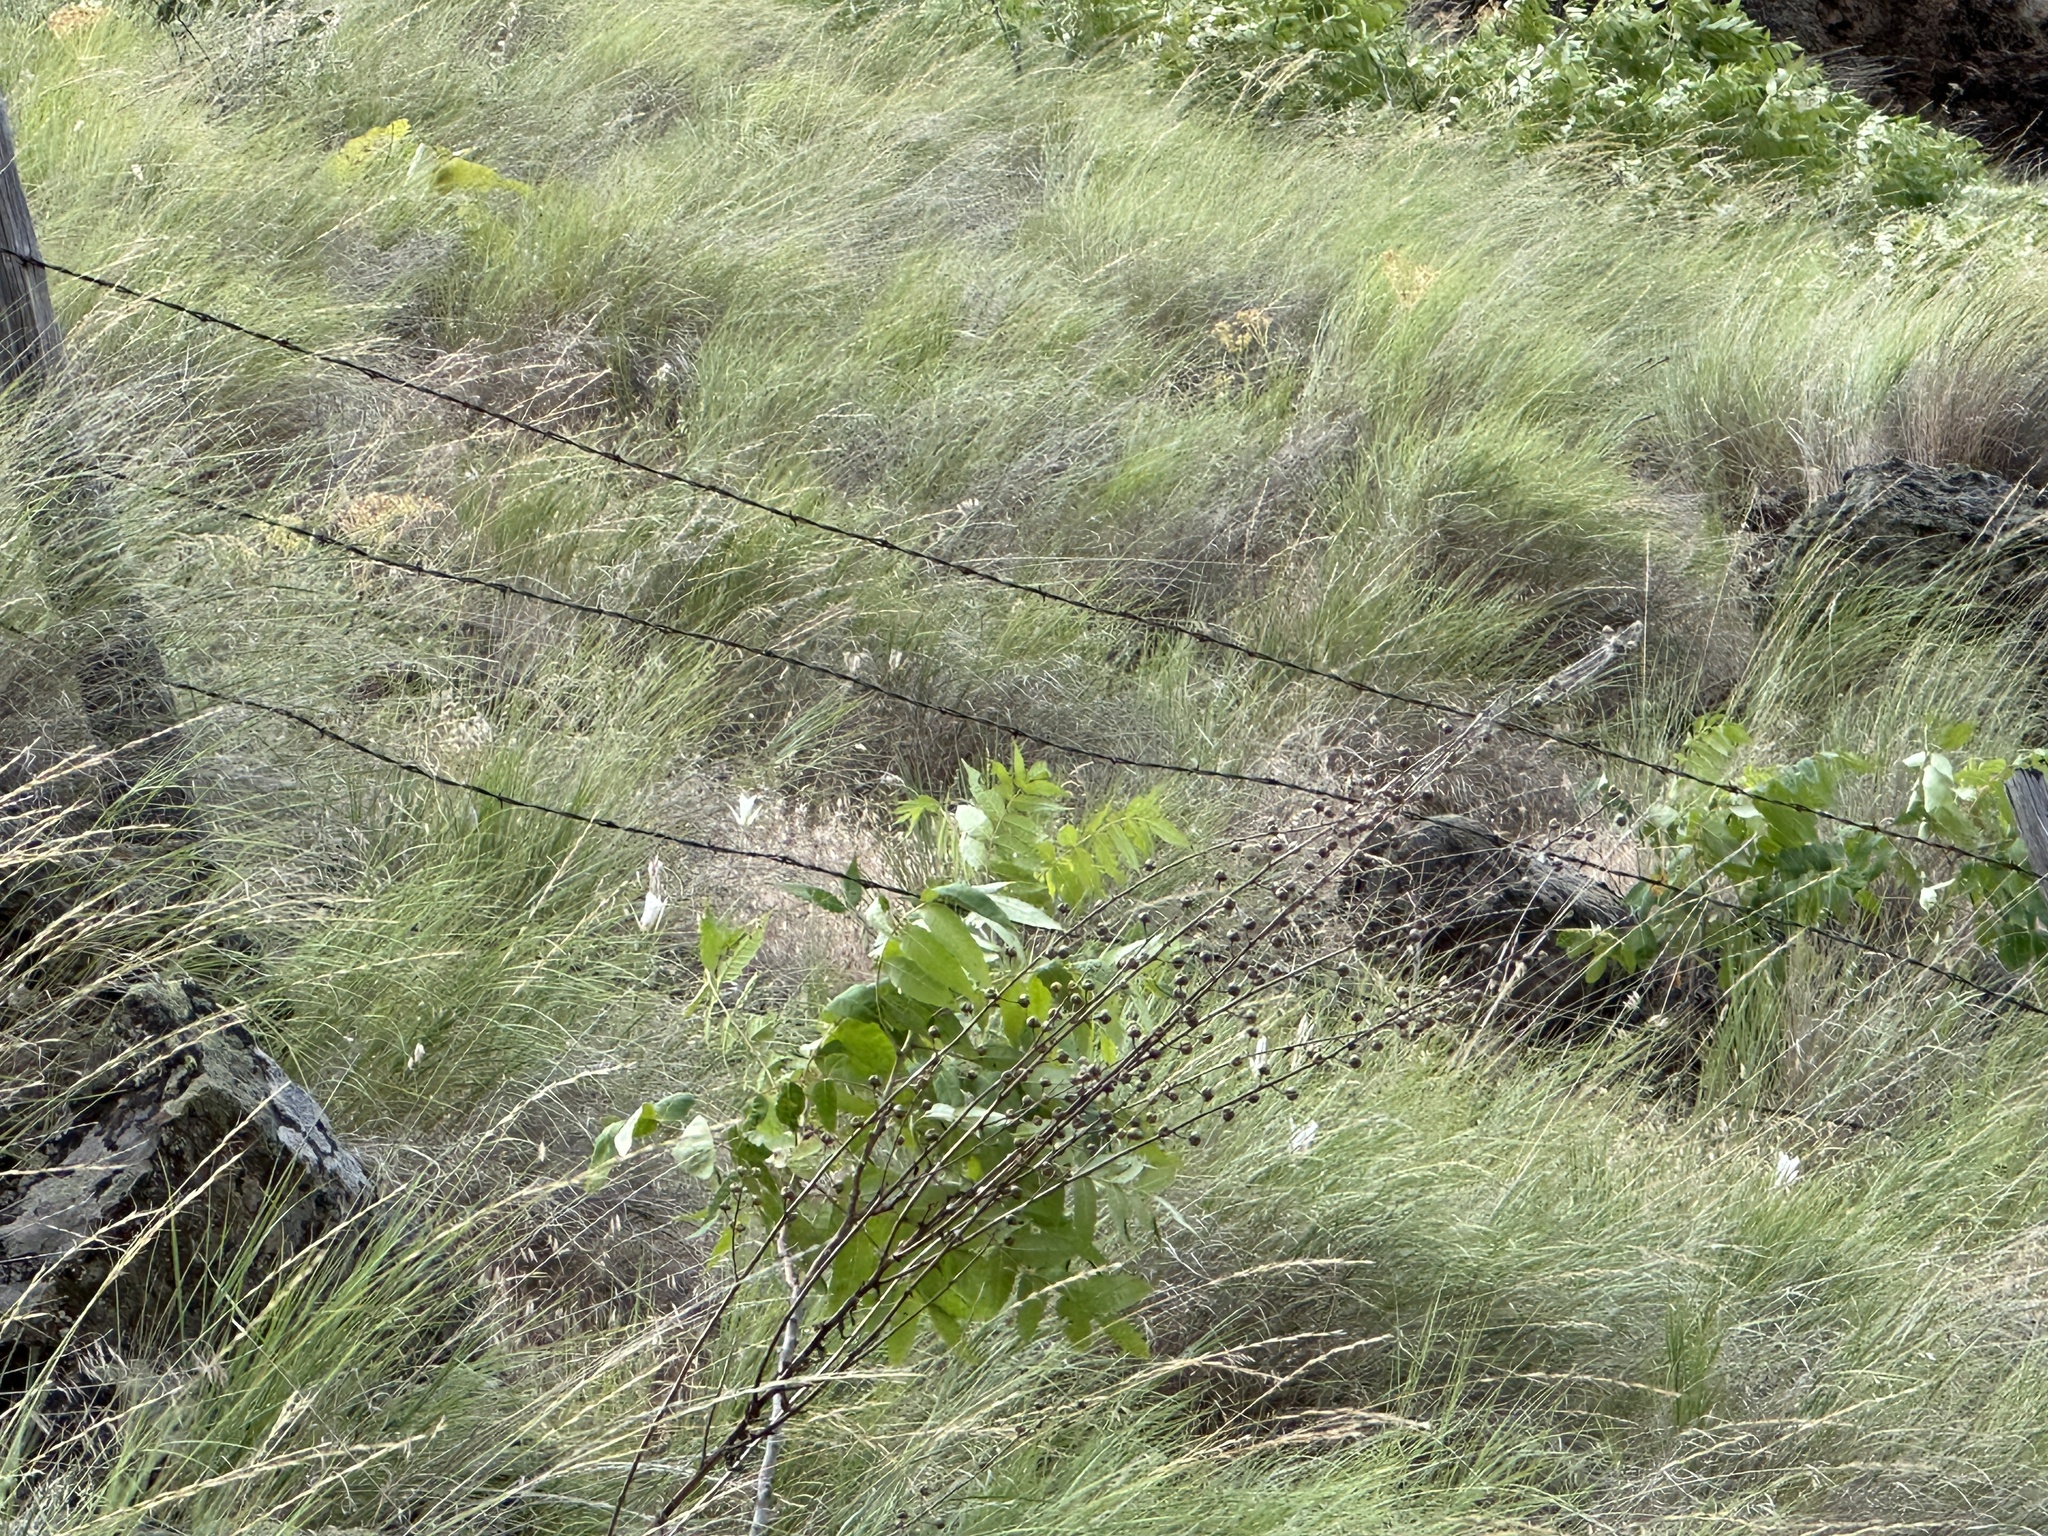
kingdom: Plantae
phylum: Tracheophyta
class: Liliopsida
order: Liliales
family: Liliaceae
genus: Calochortus
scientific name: Calochortus macrocarpus
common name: Green-band mariposa lily
